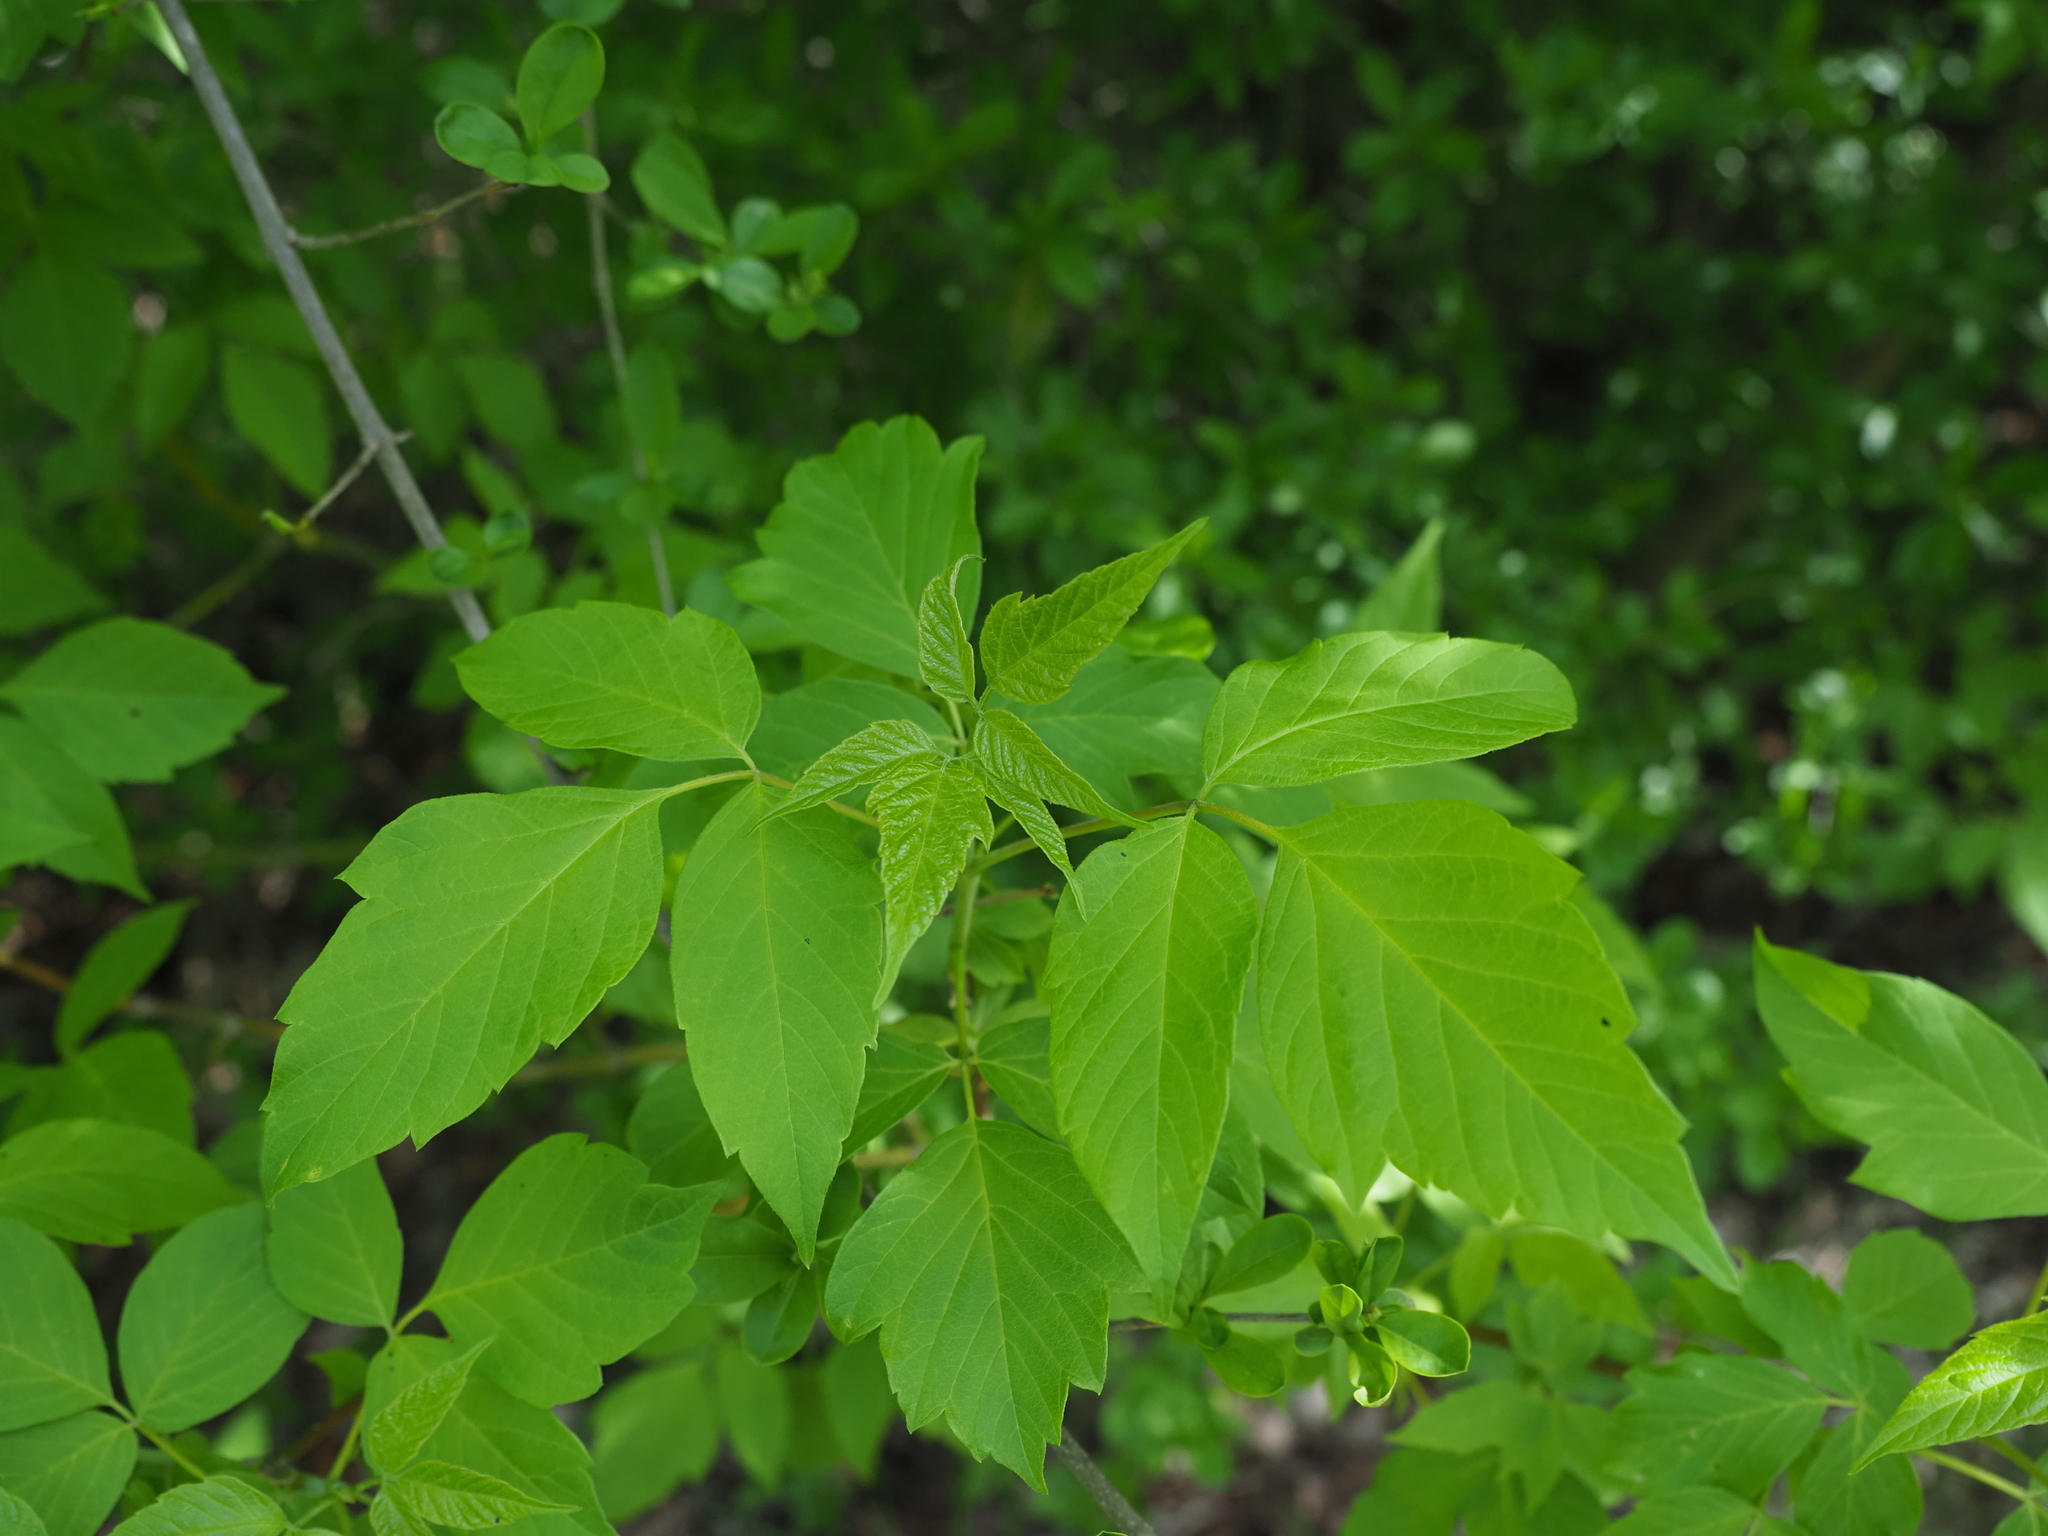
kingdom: Plantae
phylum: Tracheophyta
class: Magnoliopsida
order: Sapindales
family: Sapindaceae
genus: Acer
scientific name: Acer negundo
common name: Ashleaf maple
